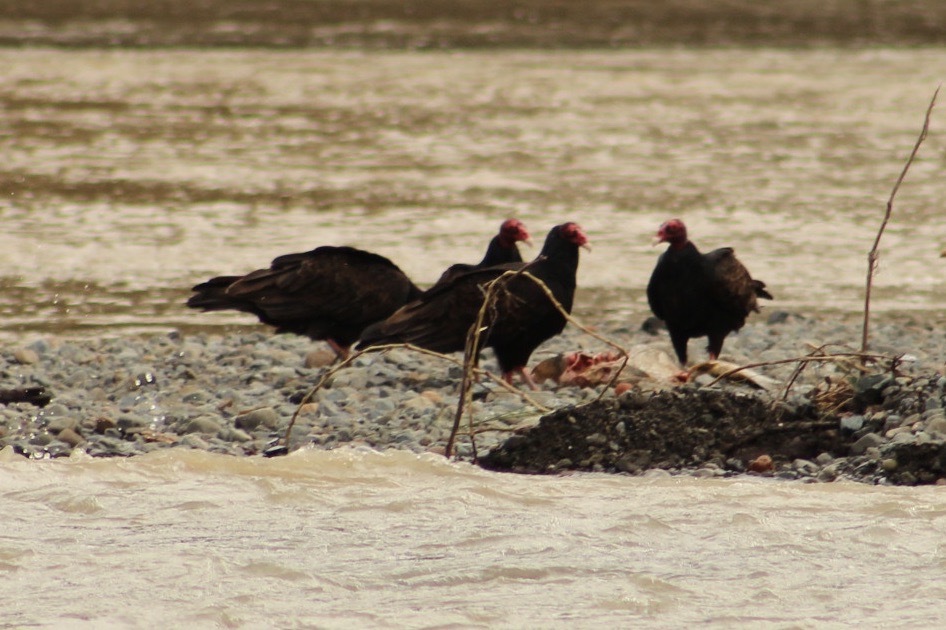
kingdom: Animalia
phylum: Chordata
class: Aves
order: Accipitriformes
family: Cathartidae
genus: Cathartes
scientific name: Cathartes aura
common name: Turkey vulture
